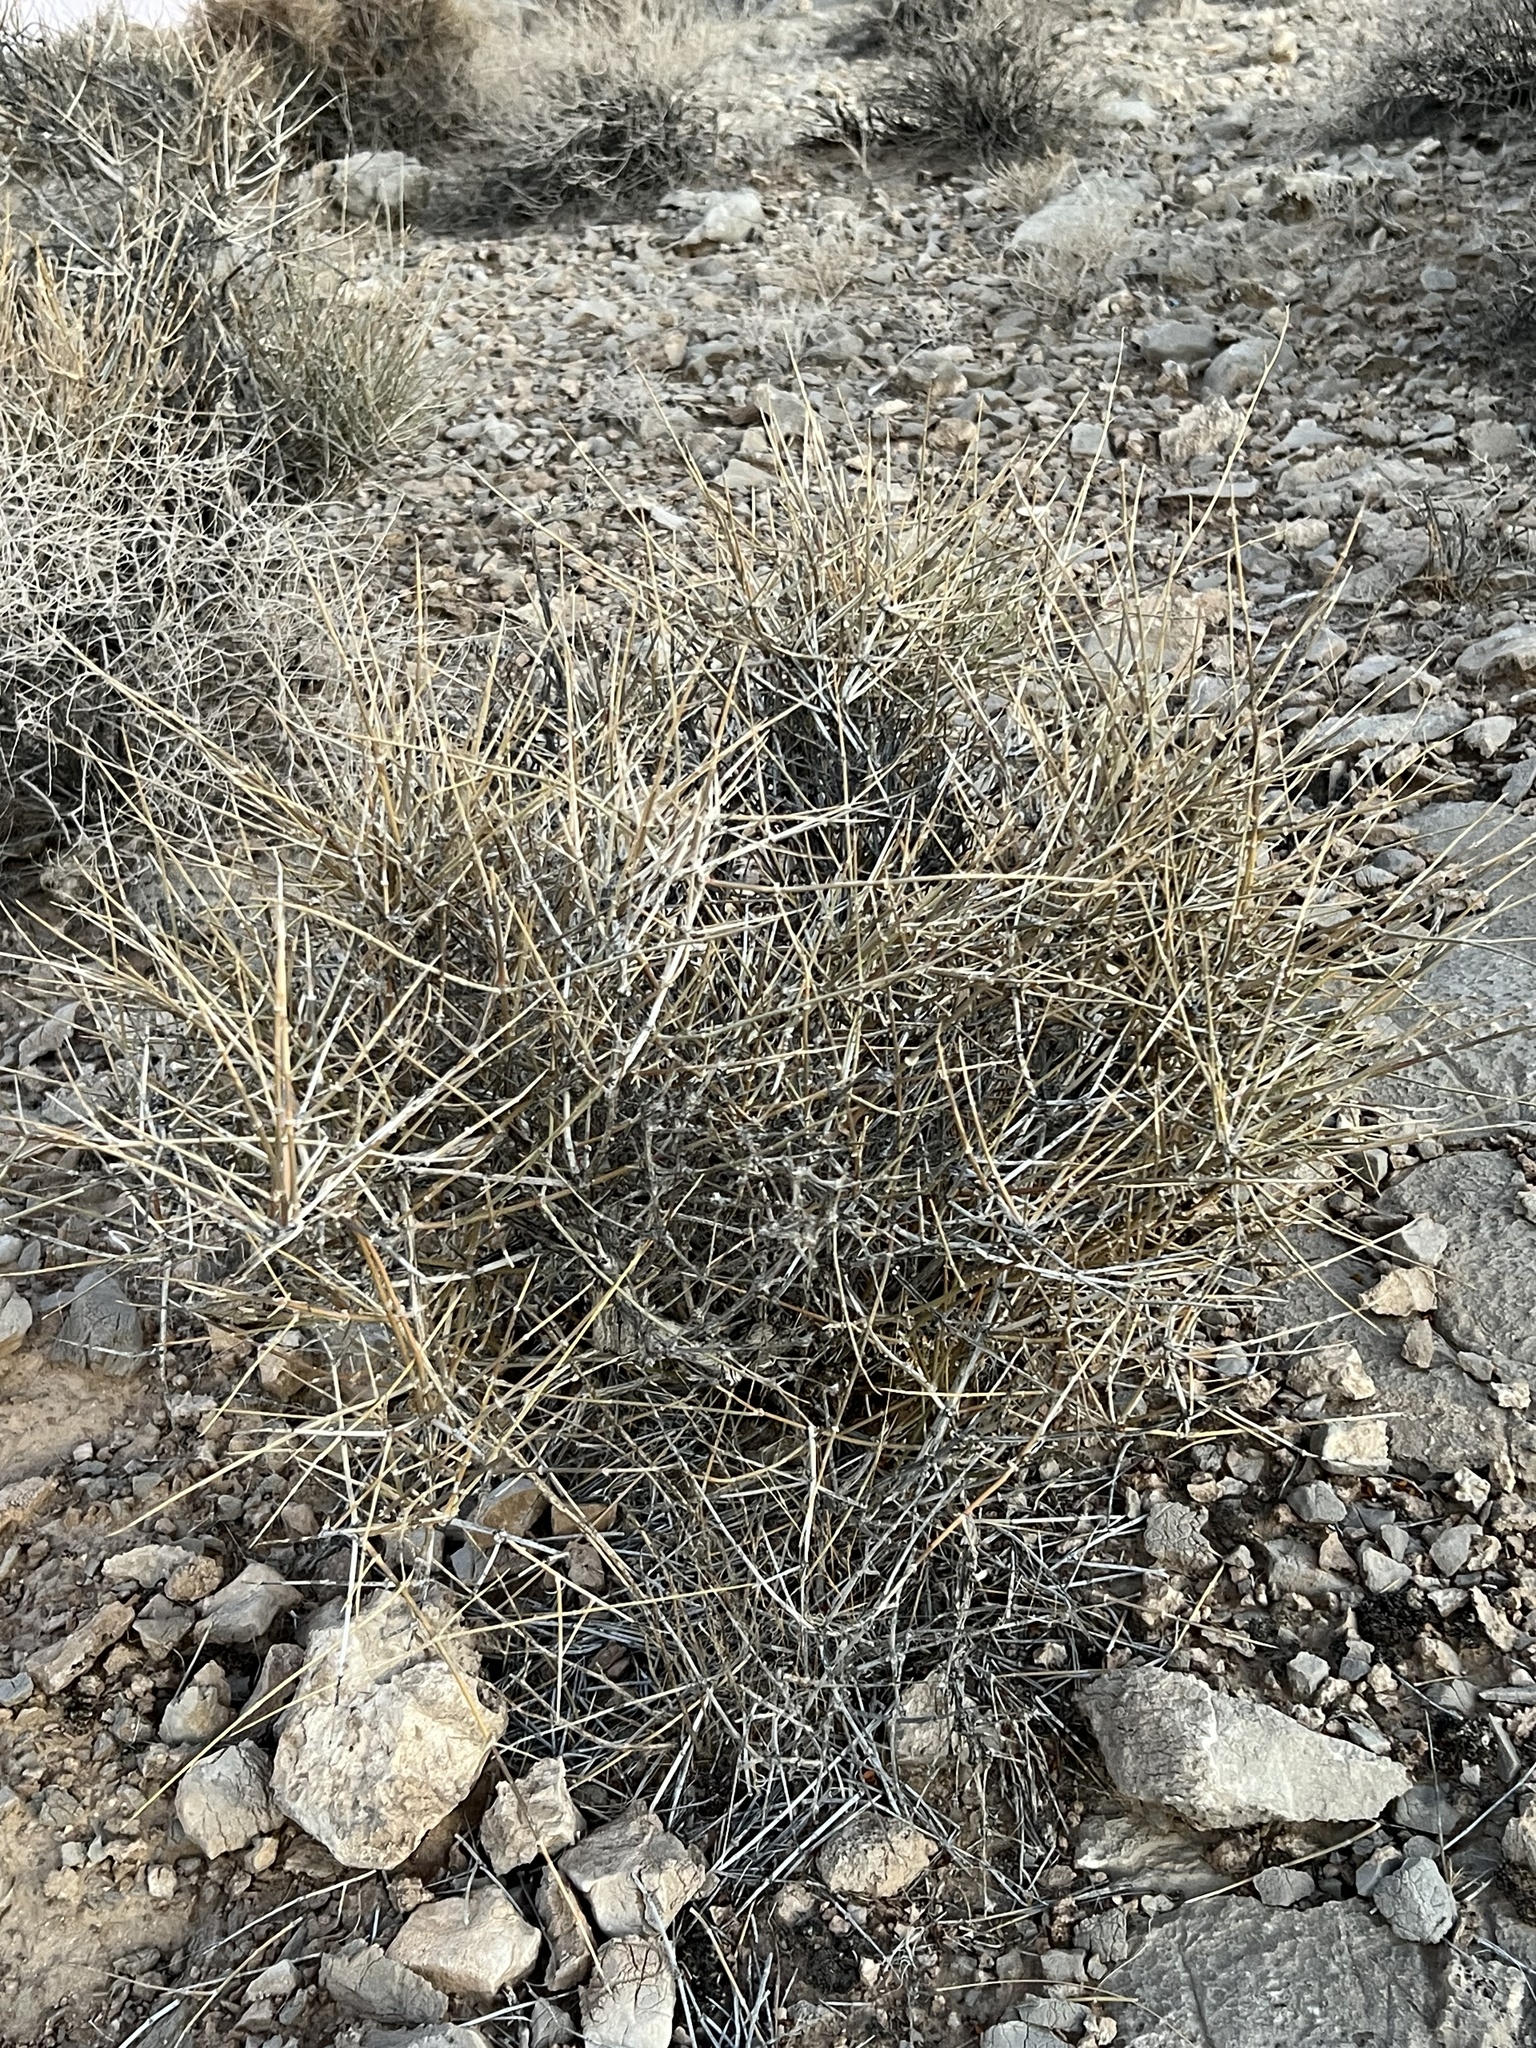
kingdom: Plantae
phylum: Tracheophyta
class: Gnetopsida
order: Ephedrales
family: Ephedraceae
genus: Ephedra
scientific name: Ephedra nevadensis
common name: Gray ephedra
